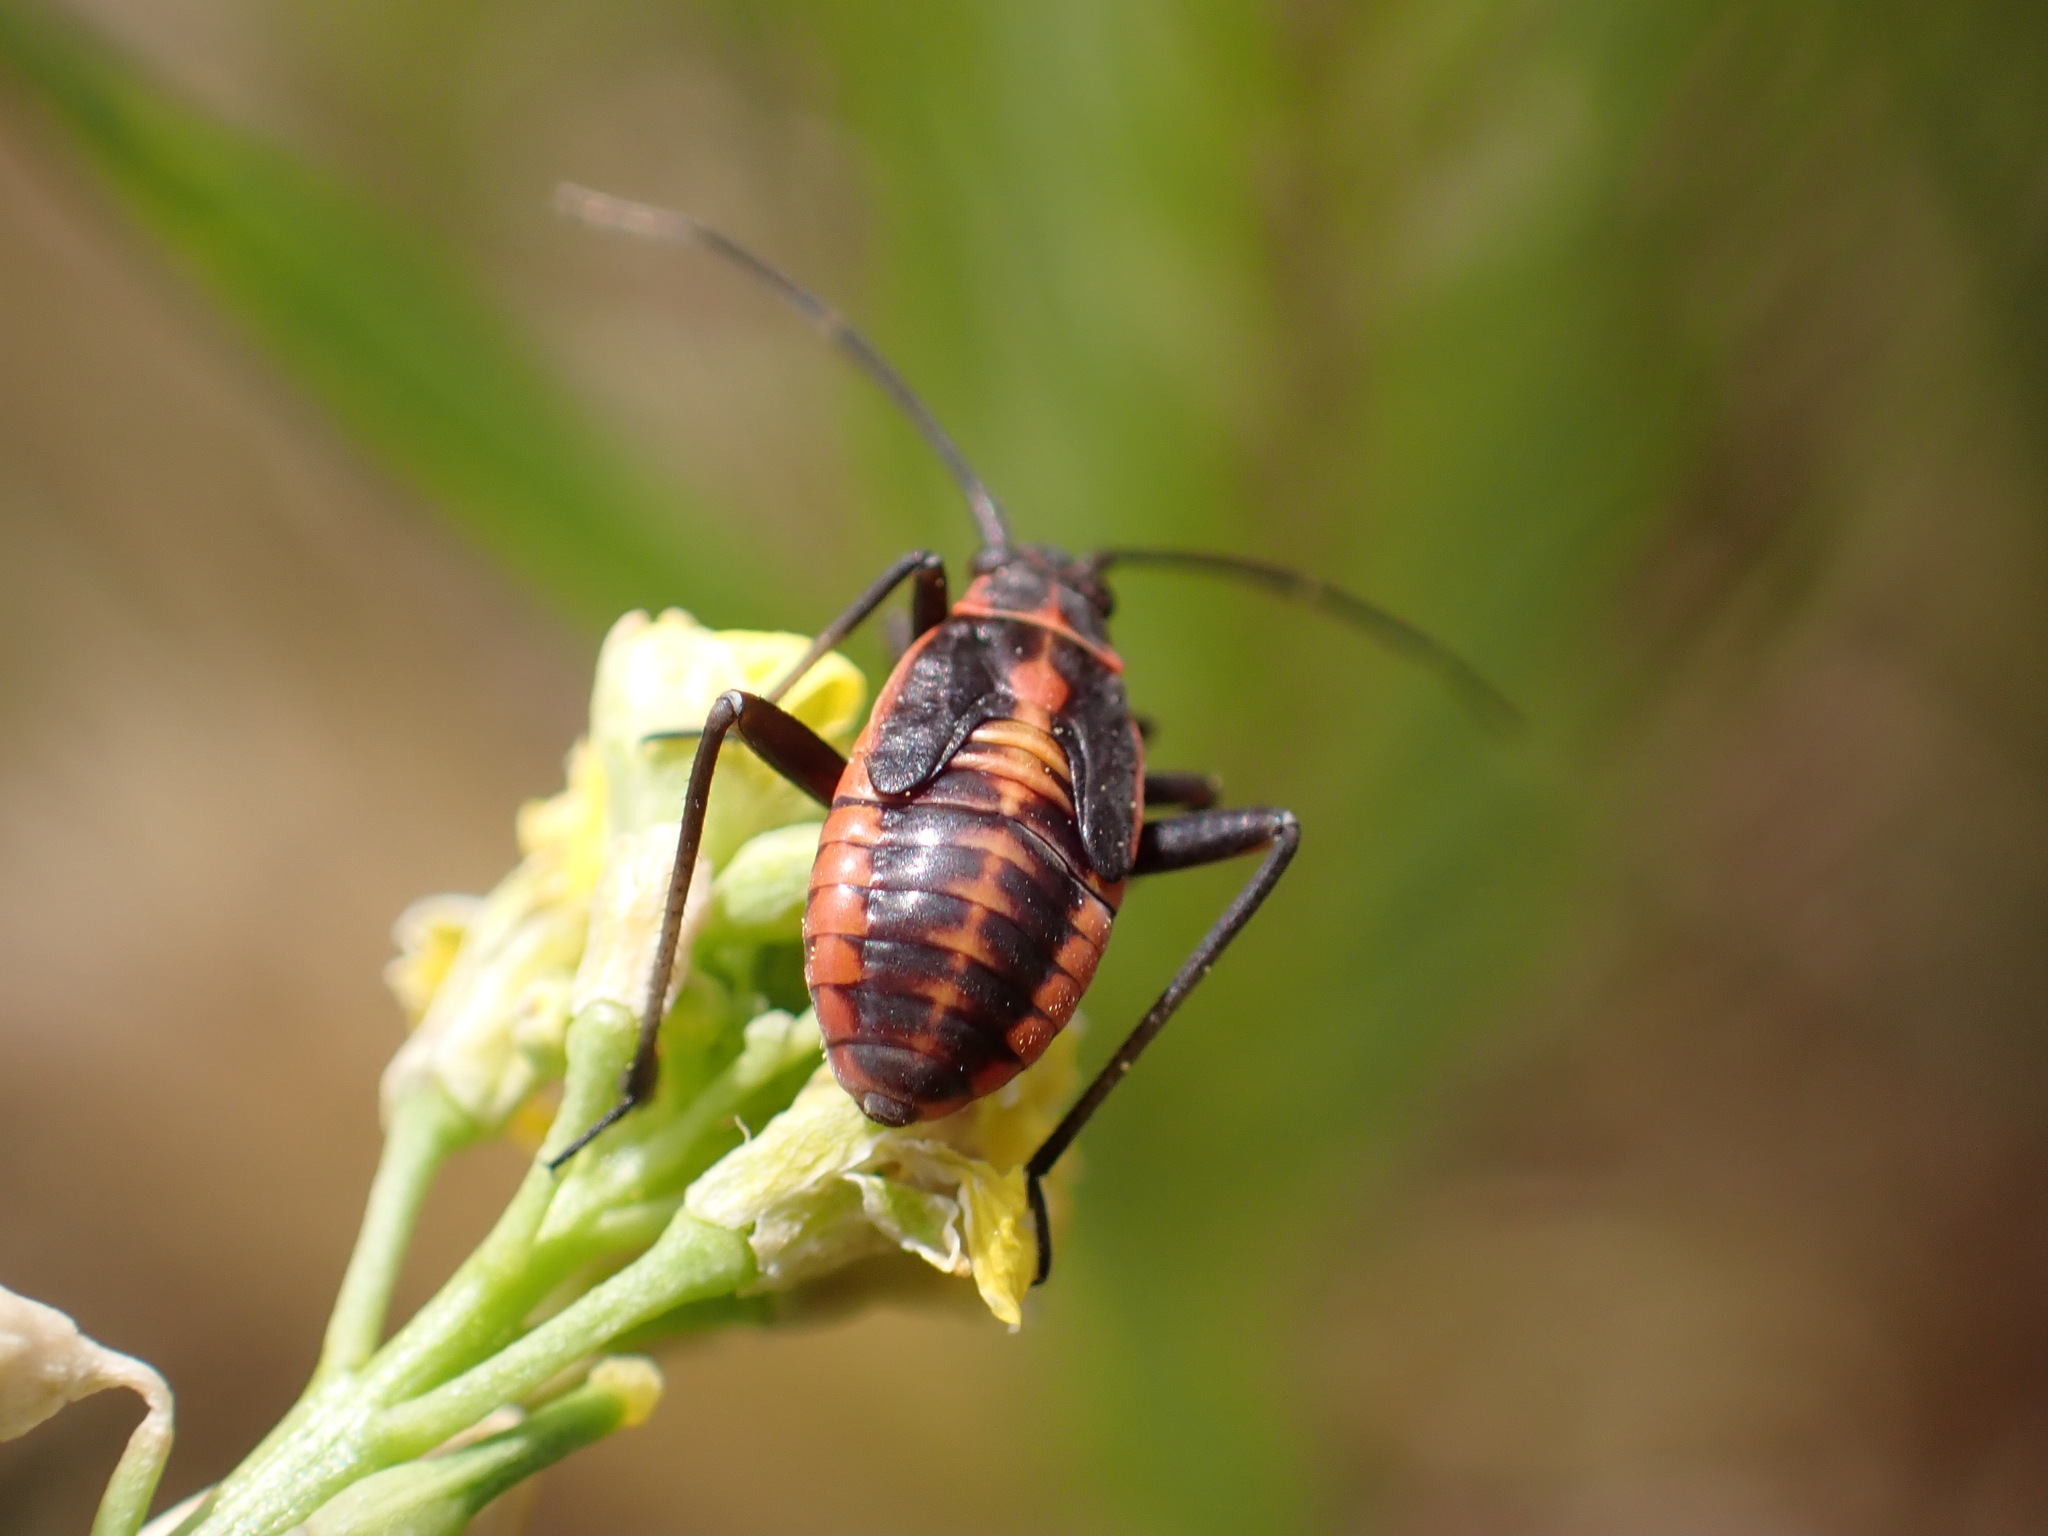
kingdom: Animalia
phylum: Arthropoda
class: Insecta
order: Hemiptera
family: Miridae
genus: Calocoris
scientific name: Calocoris nemoralis
